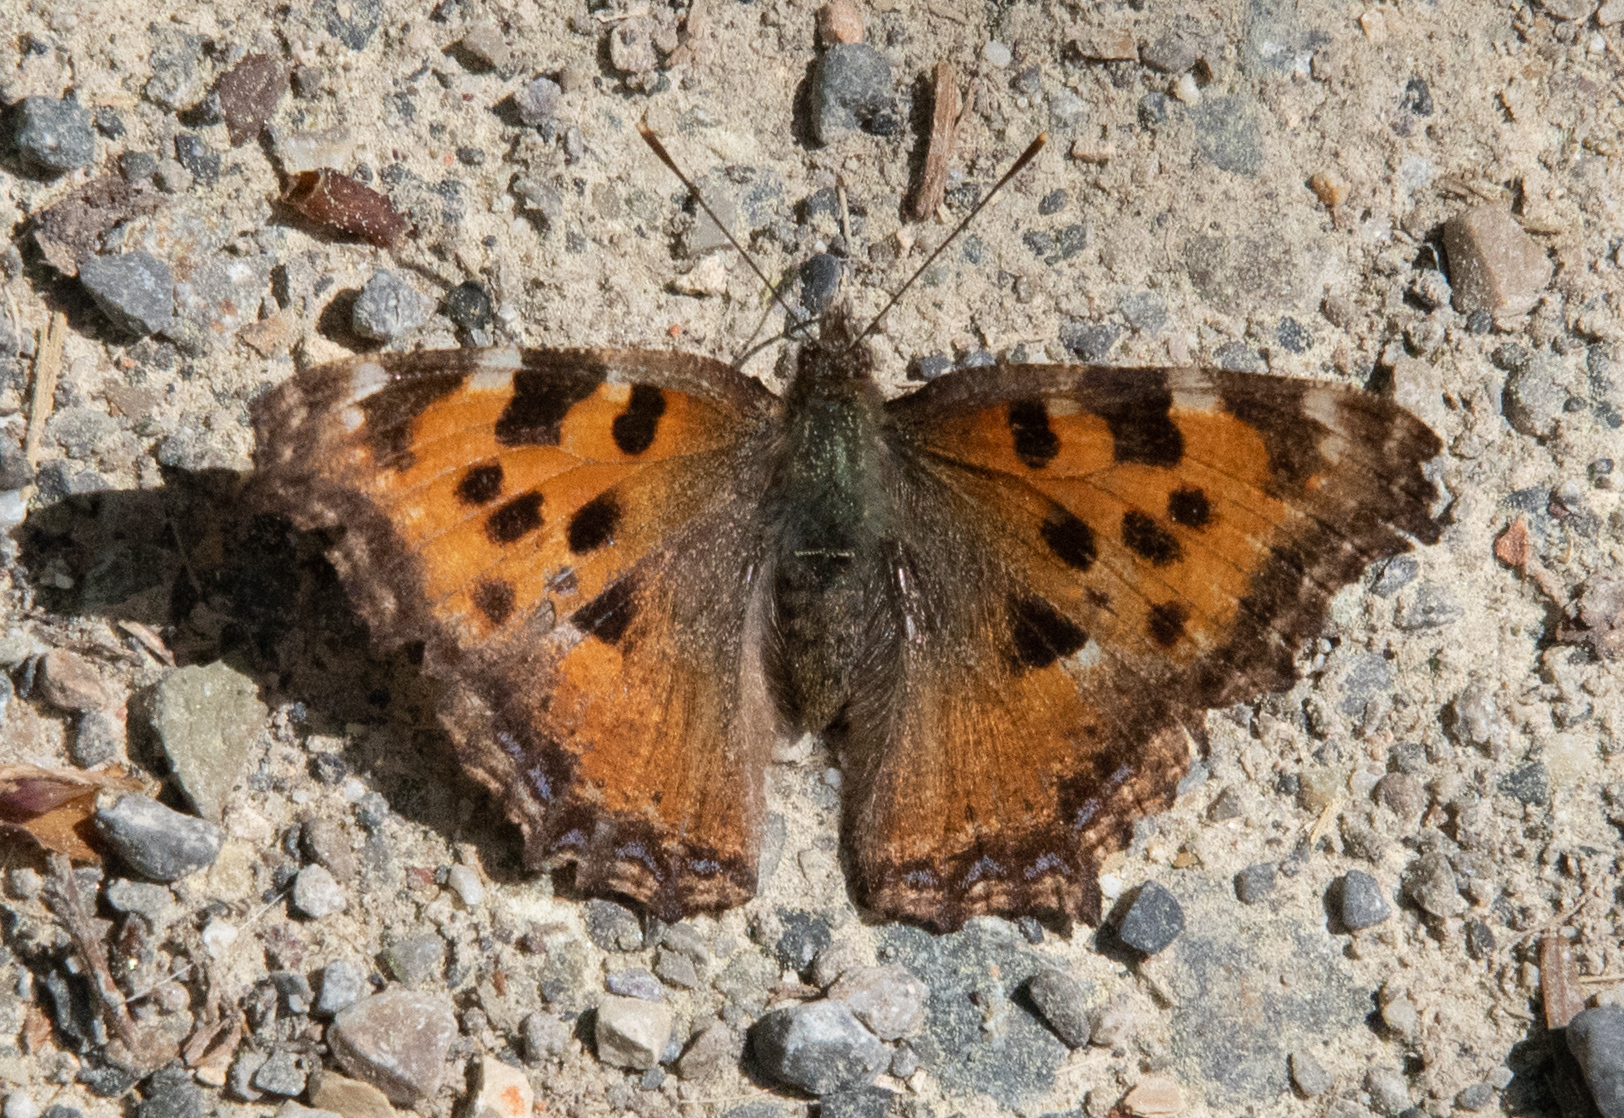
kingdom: Animalia
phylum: Arthropoda
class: Insecta
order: Lepidoptera
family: Nymphalidae
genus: Nymphalis
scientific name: Nymphalis polychloros
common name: Large tortoiseshell
